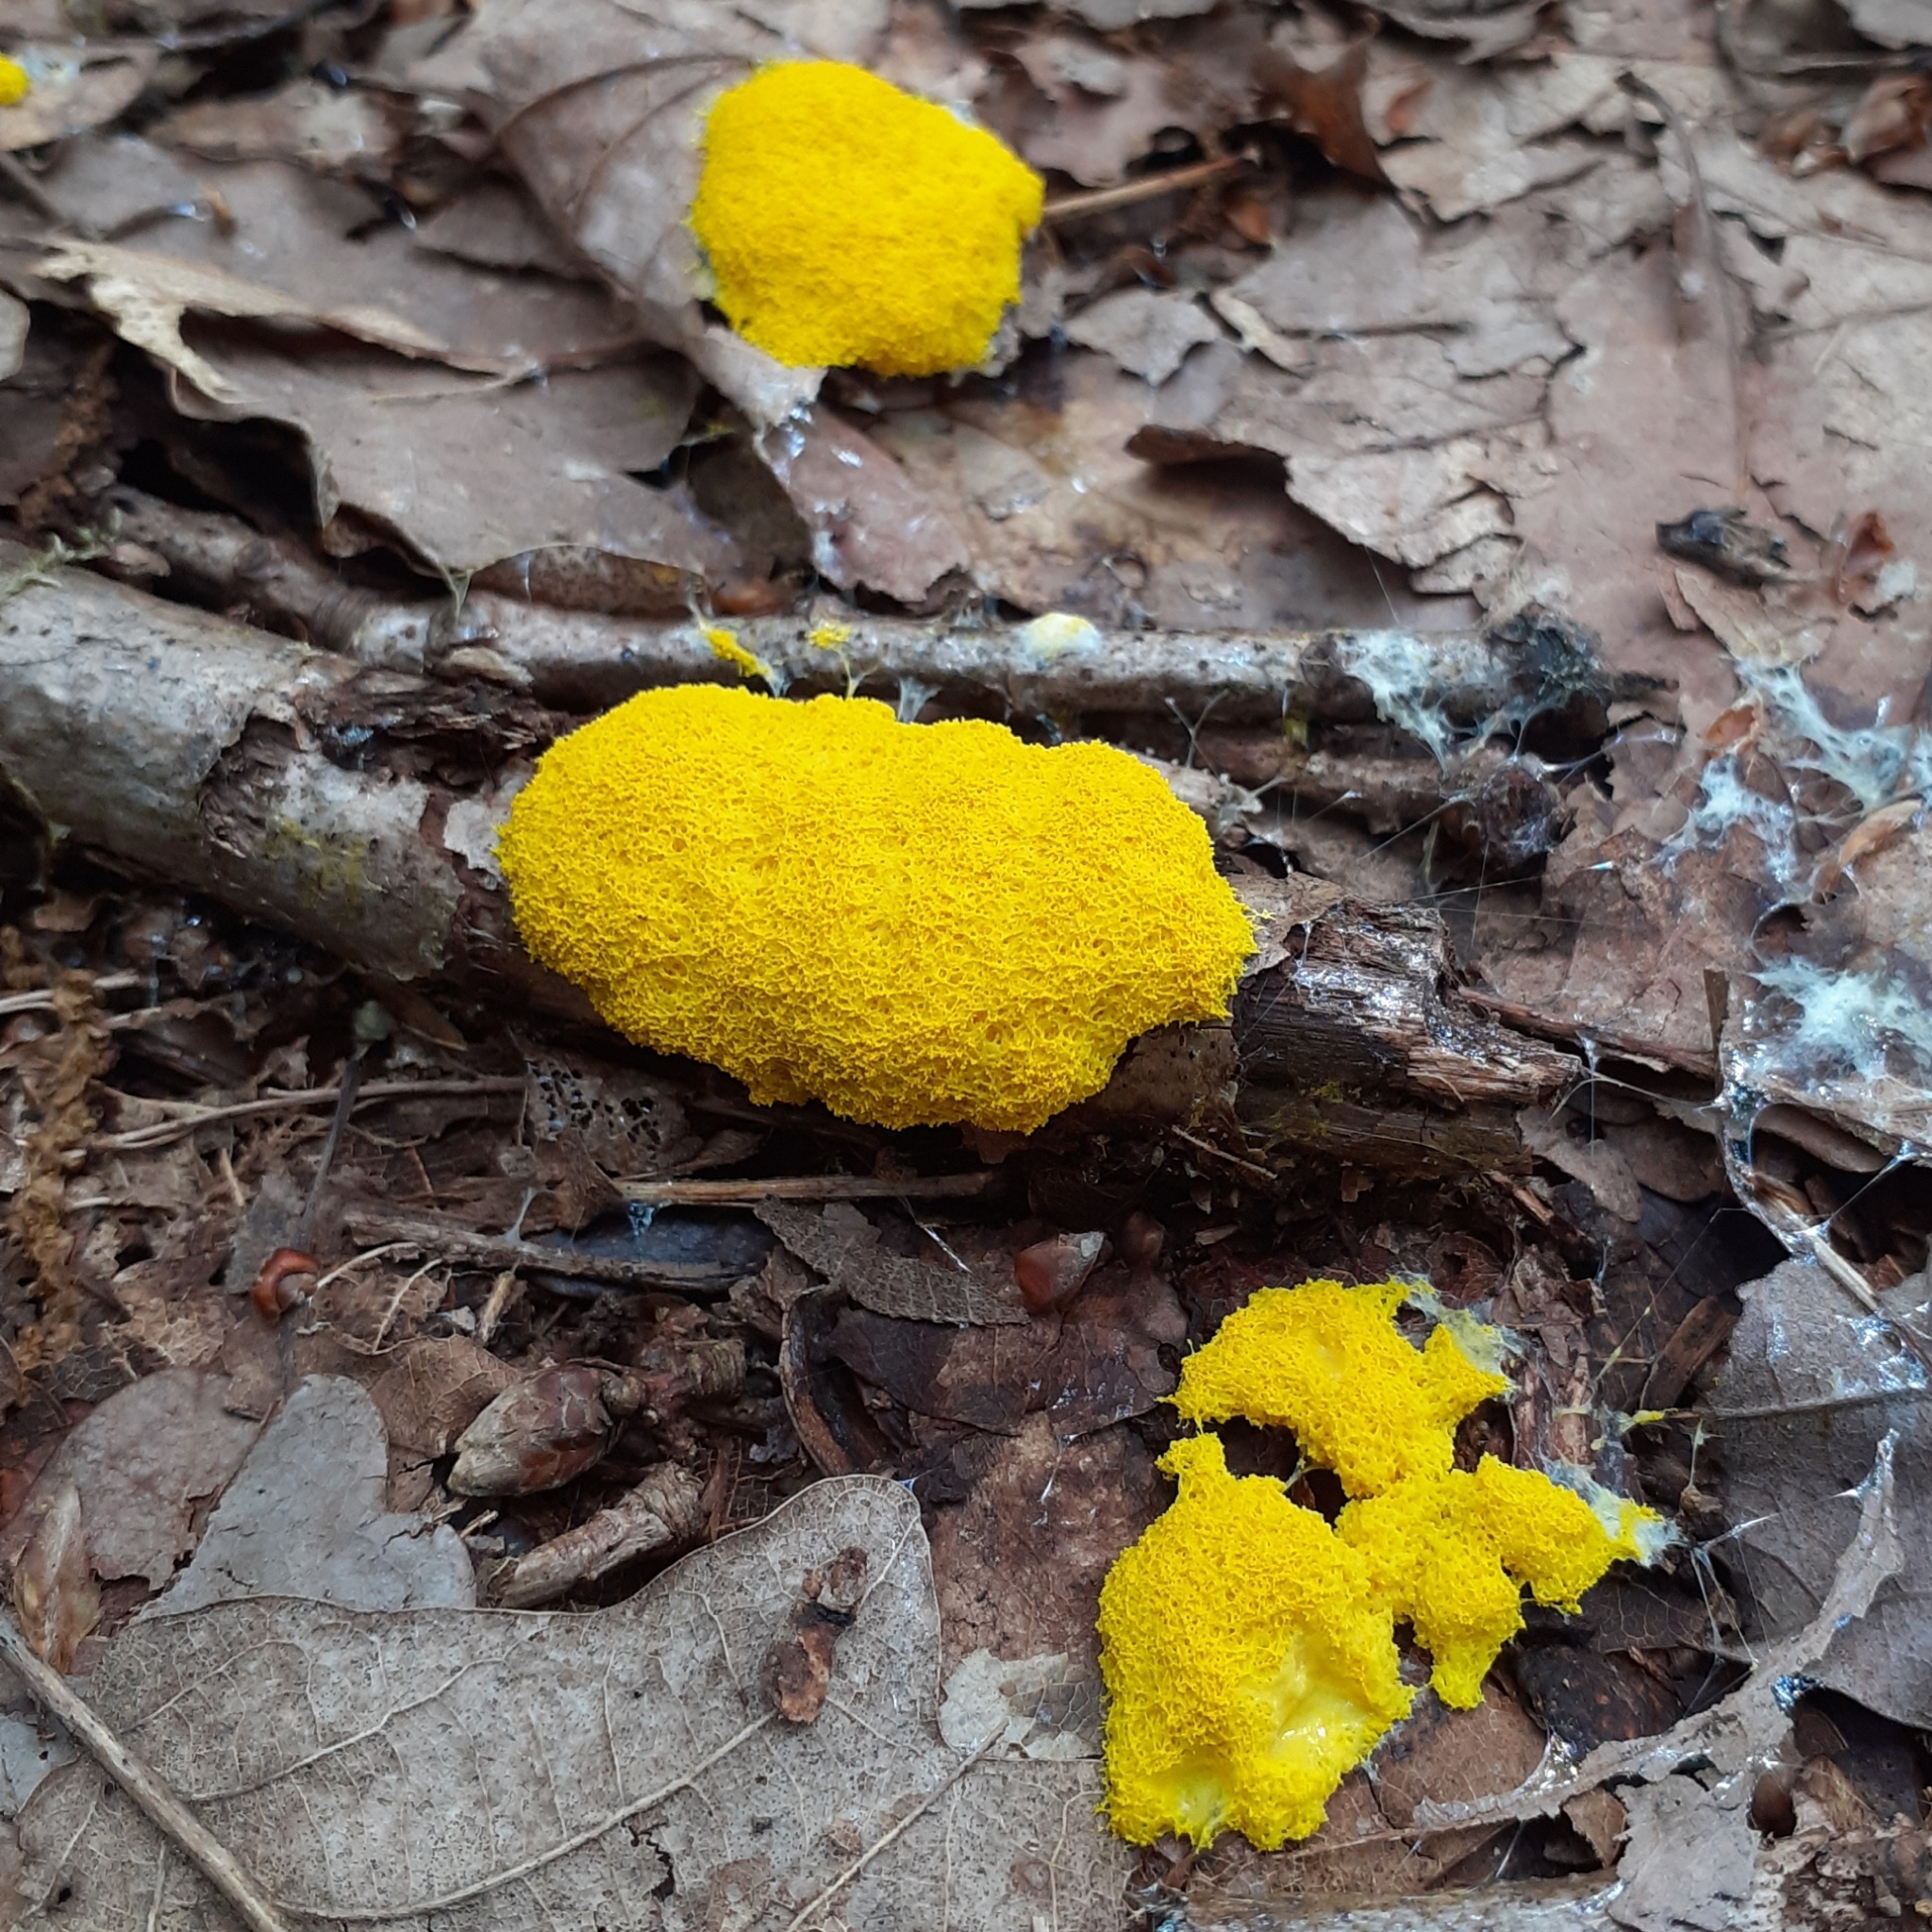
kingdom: Protozoa
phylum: Mycetozoa
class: Myxomycetes
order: Physarales
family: Physaraceae
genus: Fuligo
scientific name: Fuligo septica
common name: Dog vomit slime mold
